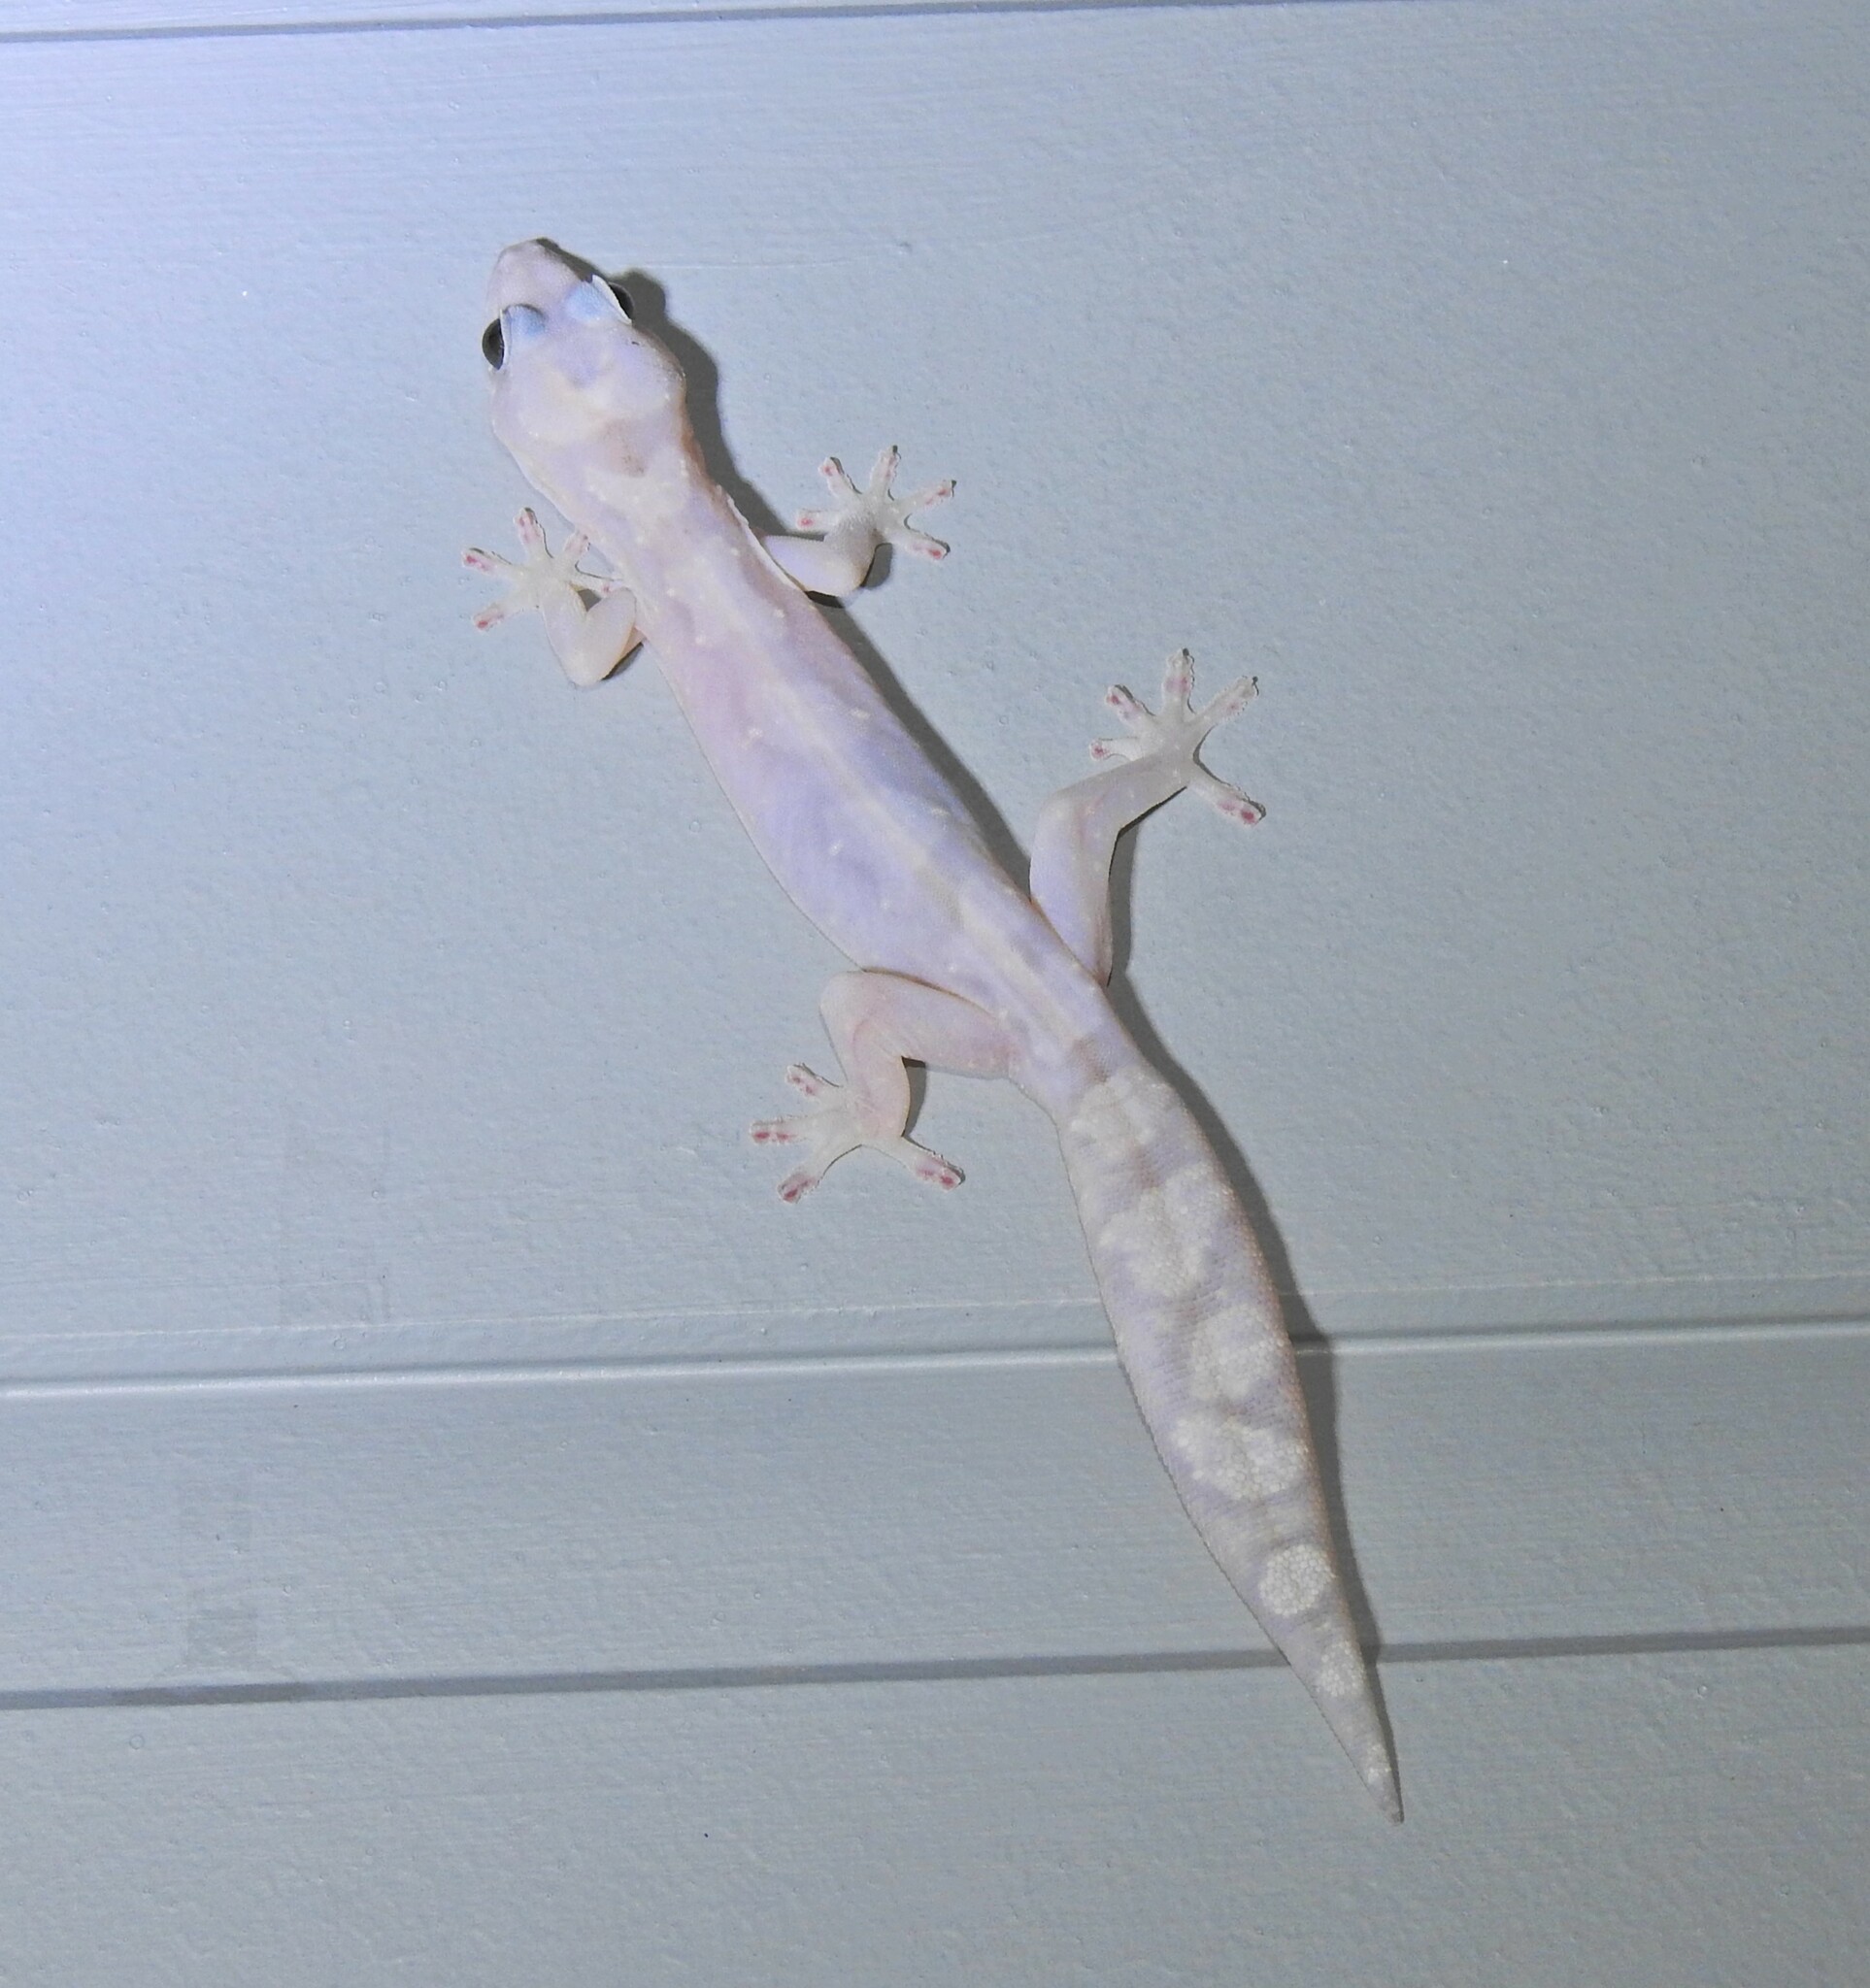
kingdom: Animalia
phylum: Chordata
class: Squamata
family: Diplodactylidae
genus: Nebulifera
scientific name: Nebulifera robusta
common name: Robust gecko
